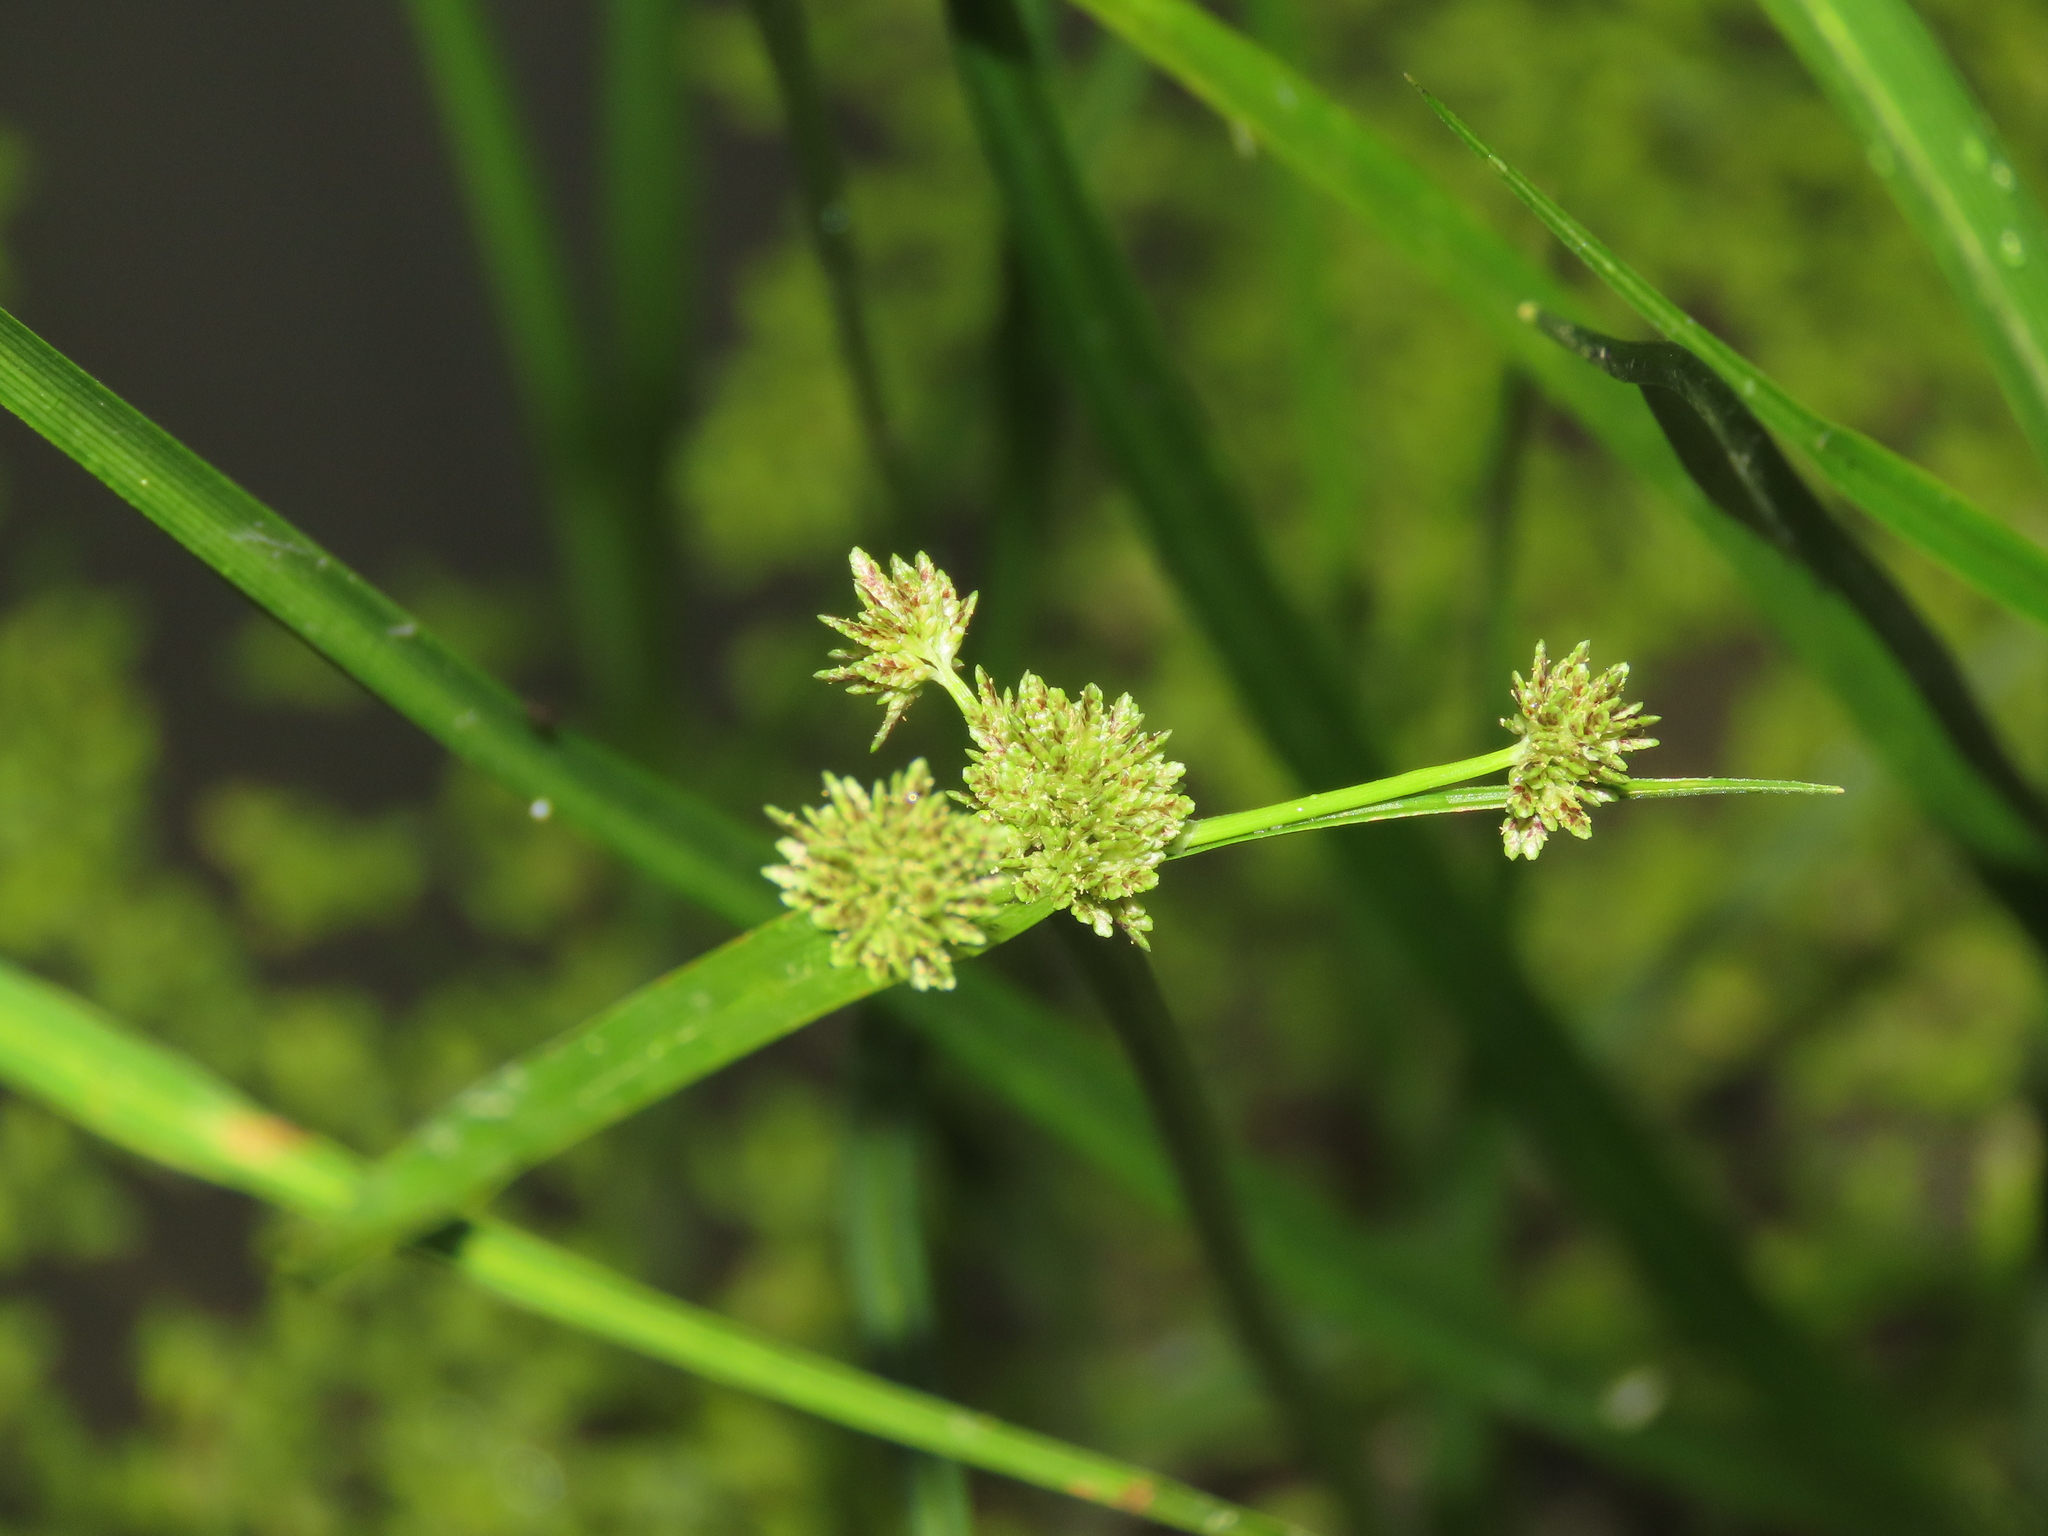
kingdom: Plantae
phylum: Tracheophyta
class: Liliopsida
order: Poales
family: Cyperaceae
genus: Cyperus
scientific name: Cyperus difformis
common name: Variable flatsedge
